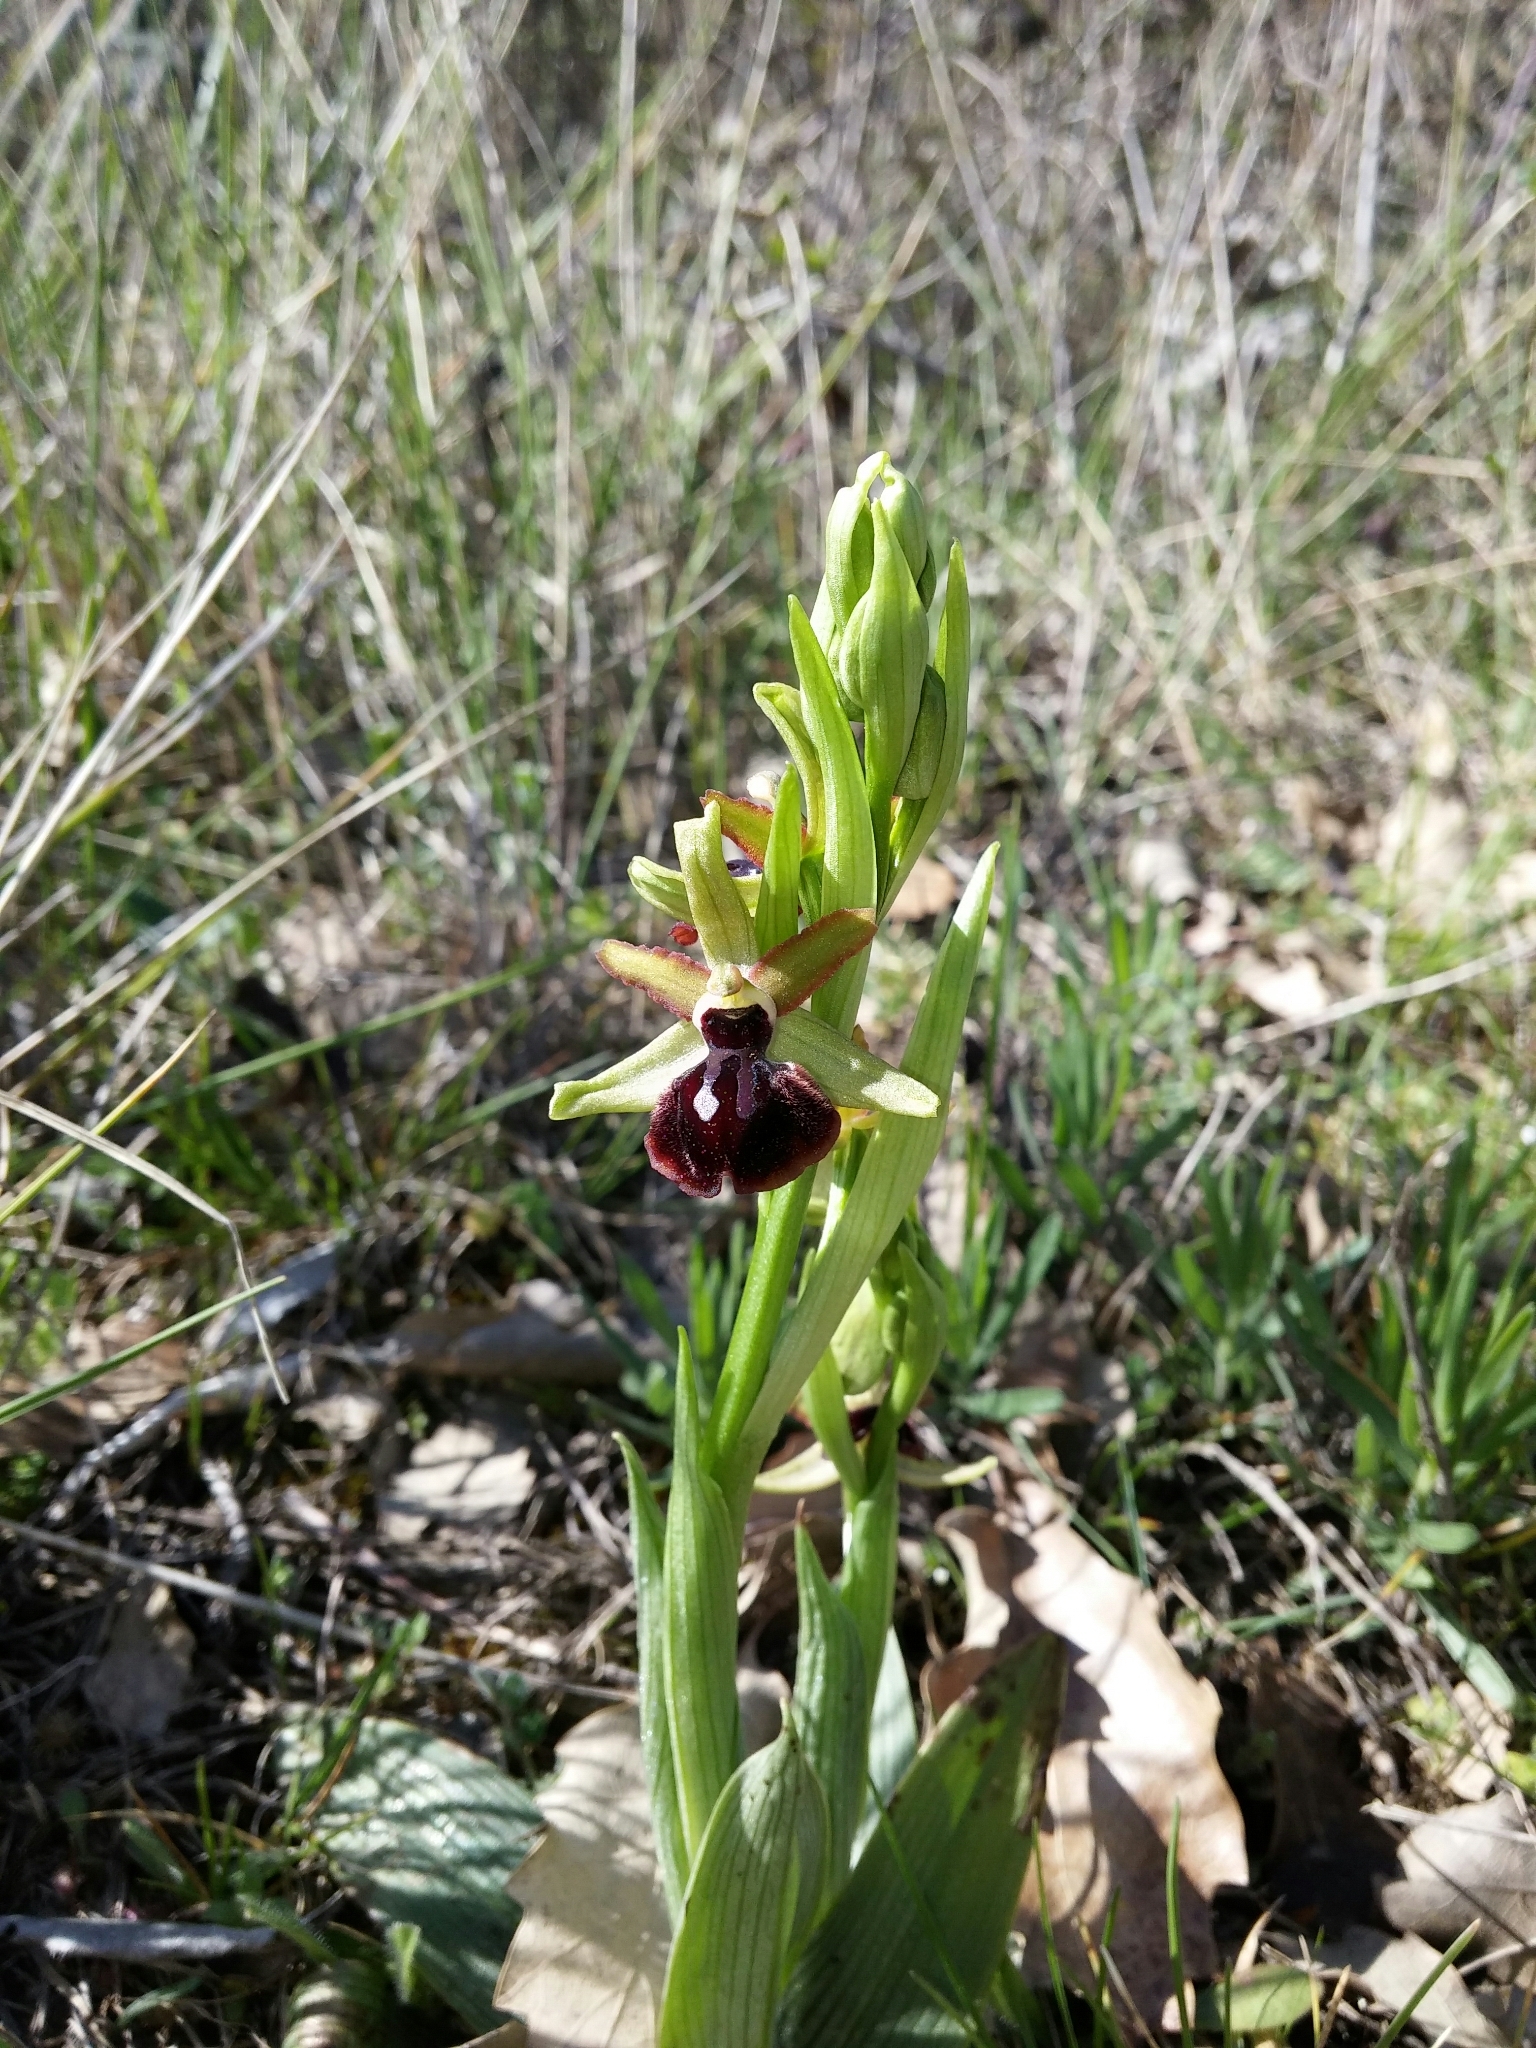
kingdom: Plantae
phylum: Tracheophyta
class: Liliopsida
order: Asparagales
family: Orchidaceae
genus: Ophrys
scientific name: Ophrys sphegodes
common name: Early spider-orchid
